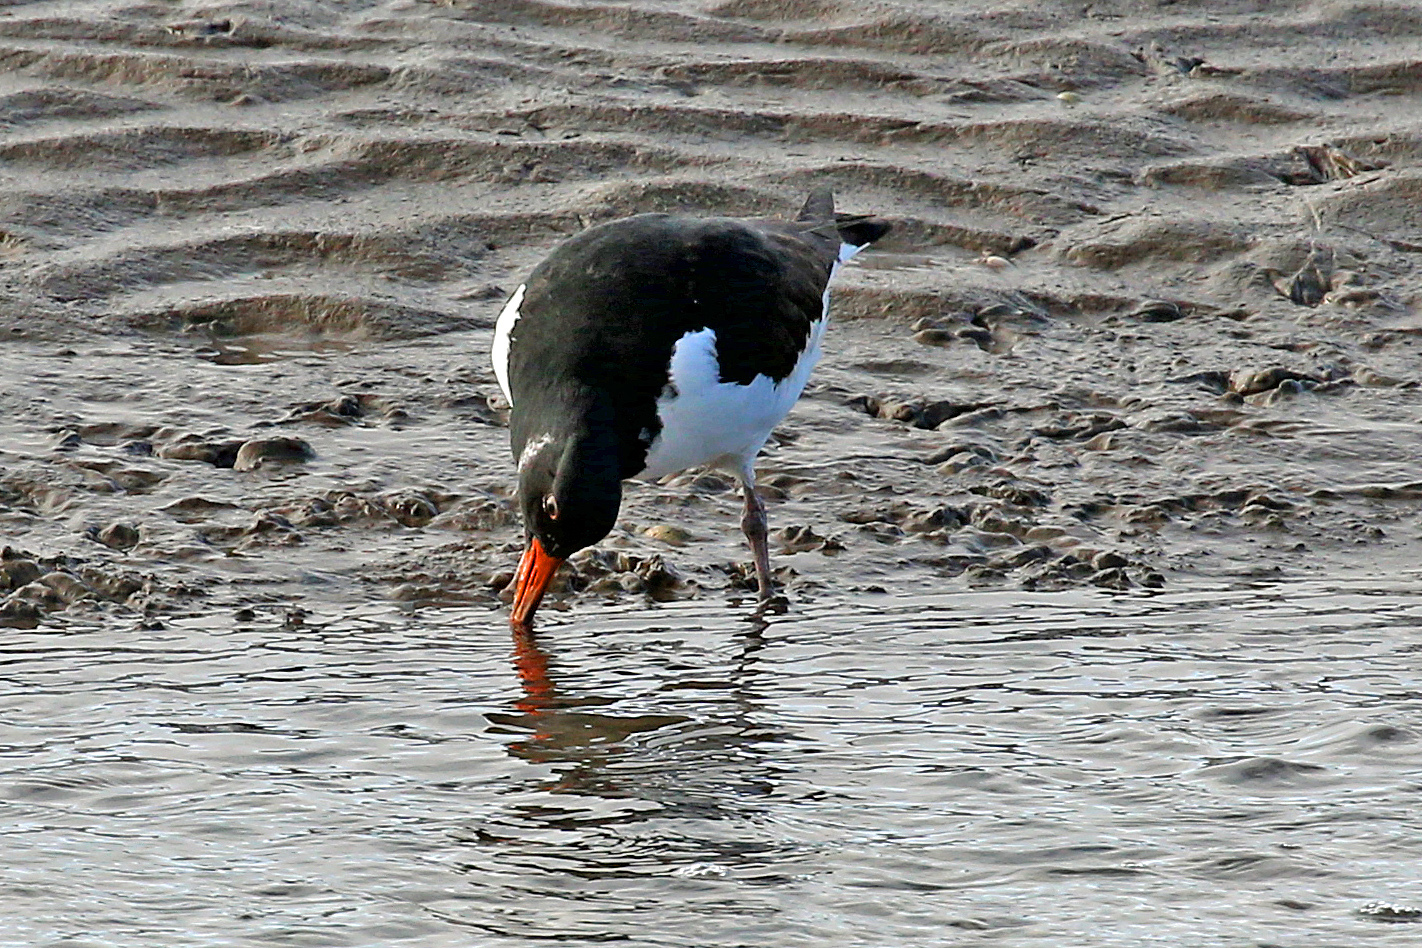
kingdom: Animalia
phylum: Chordata
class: Aves
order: Charadriiformes
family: Haematopodidae
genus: Haematopus
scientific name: Haematopus ostralegus
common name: Eurasian oystercatcher
